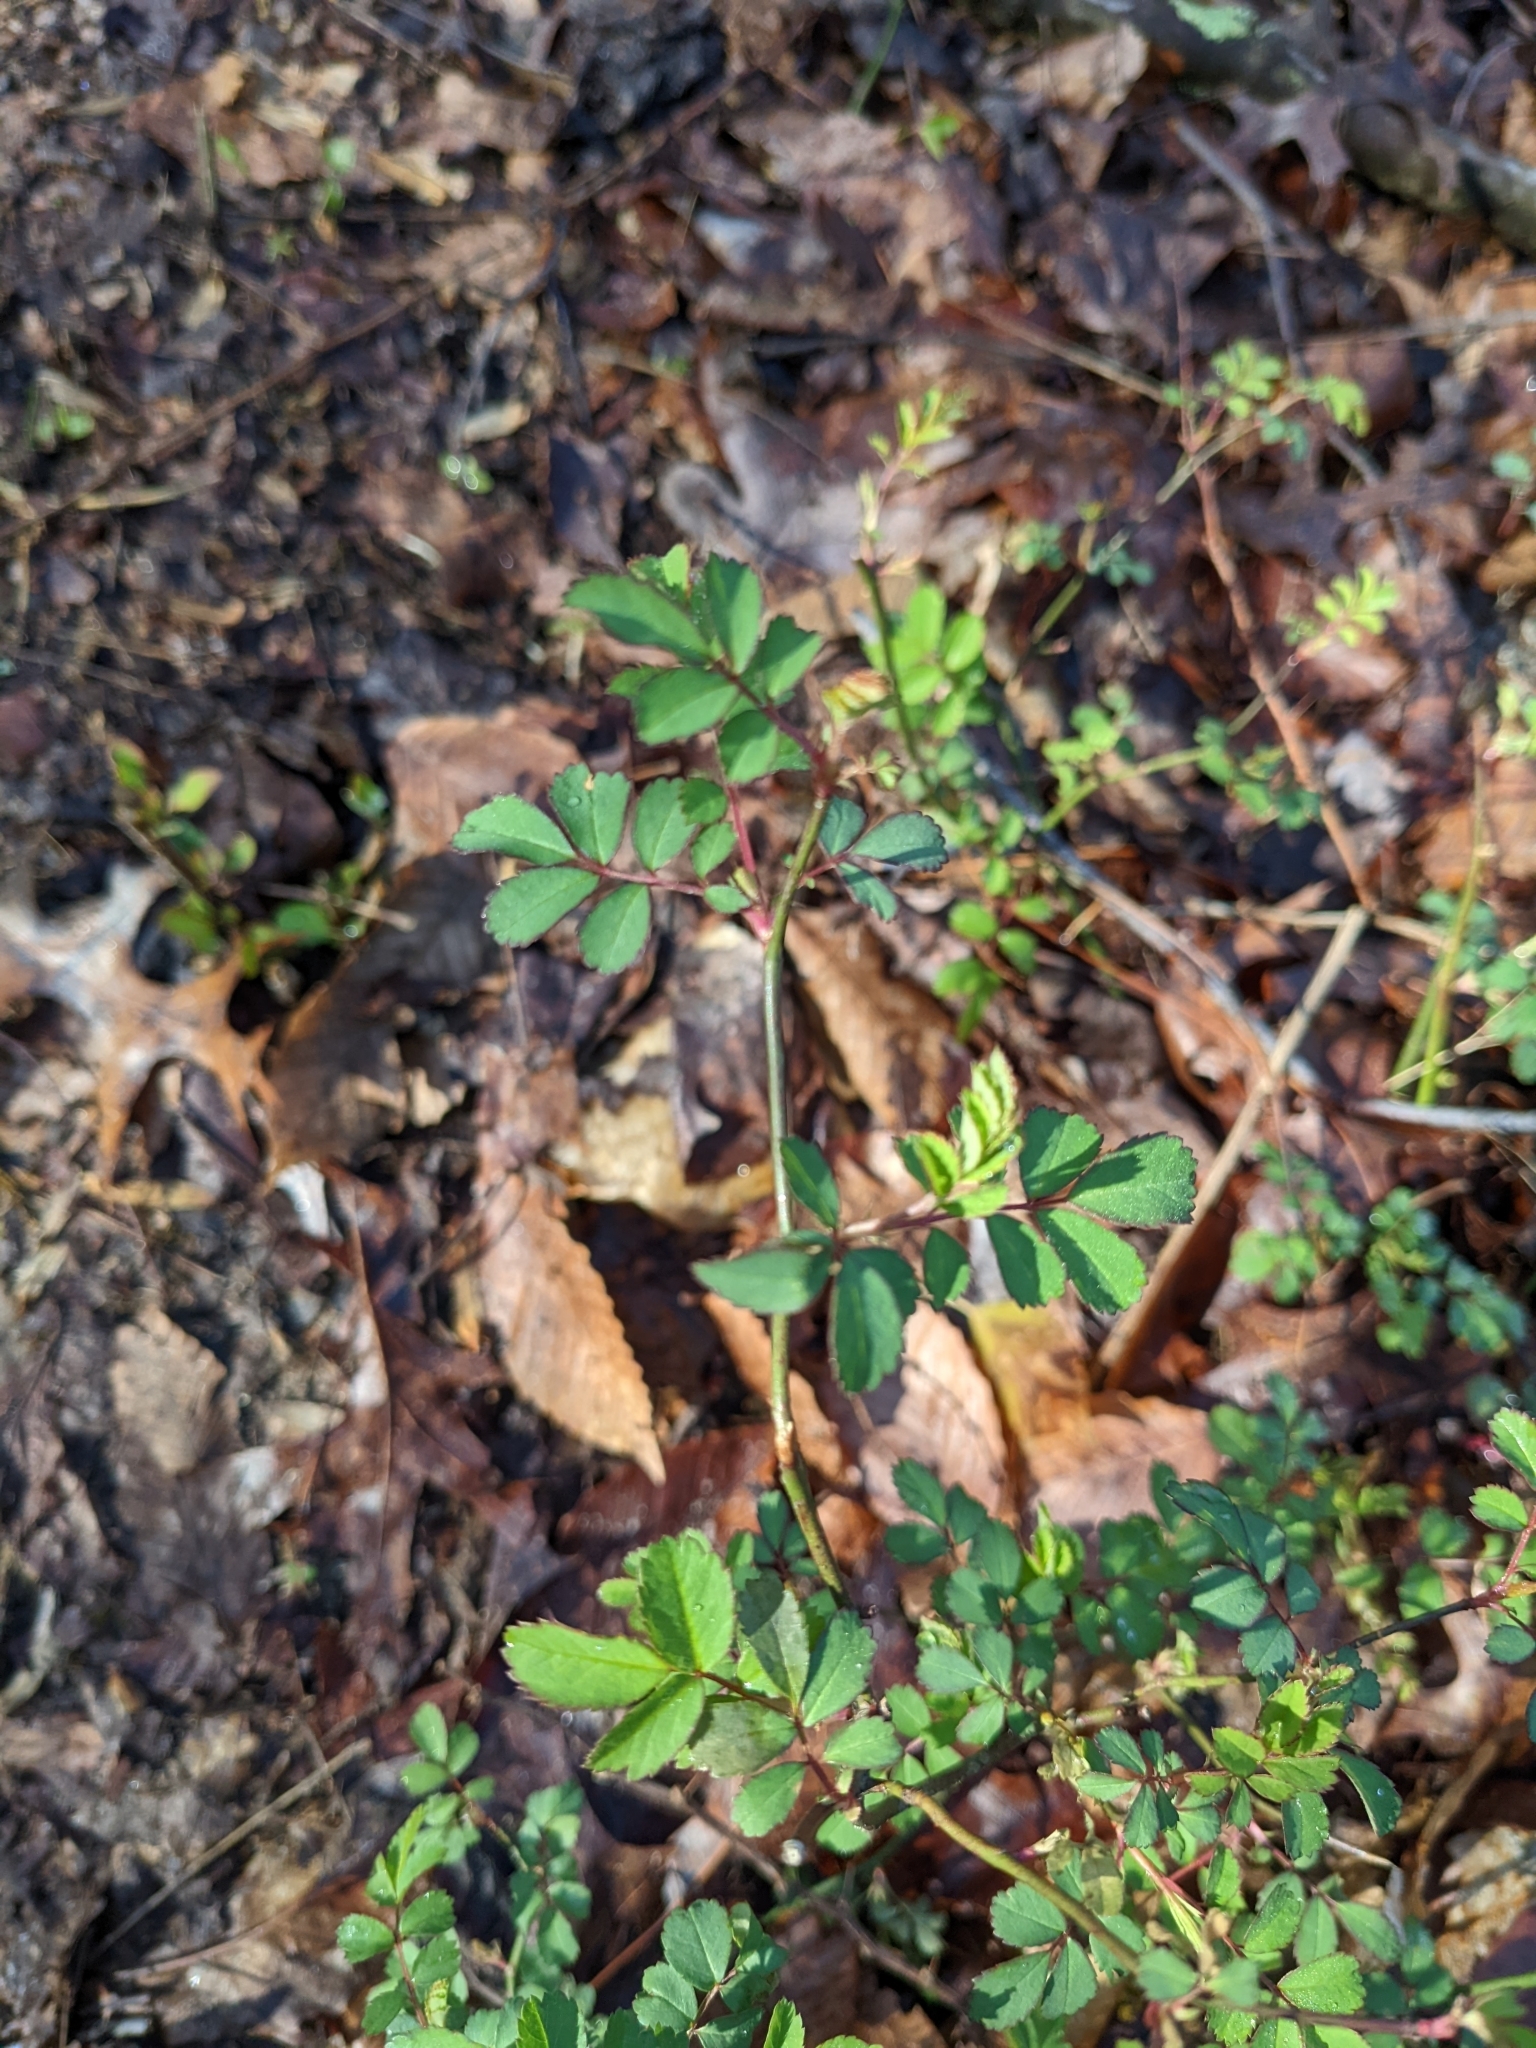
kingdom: Plantae
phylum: Tracheophyta
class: Magnoliopsida
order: Rosales
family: Rosaceae
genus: Rosa
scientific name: Rosa multiflora
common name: Multiflora rose
